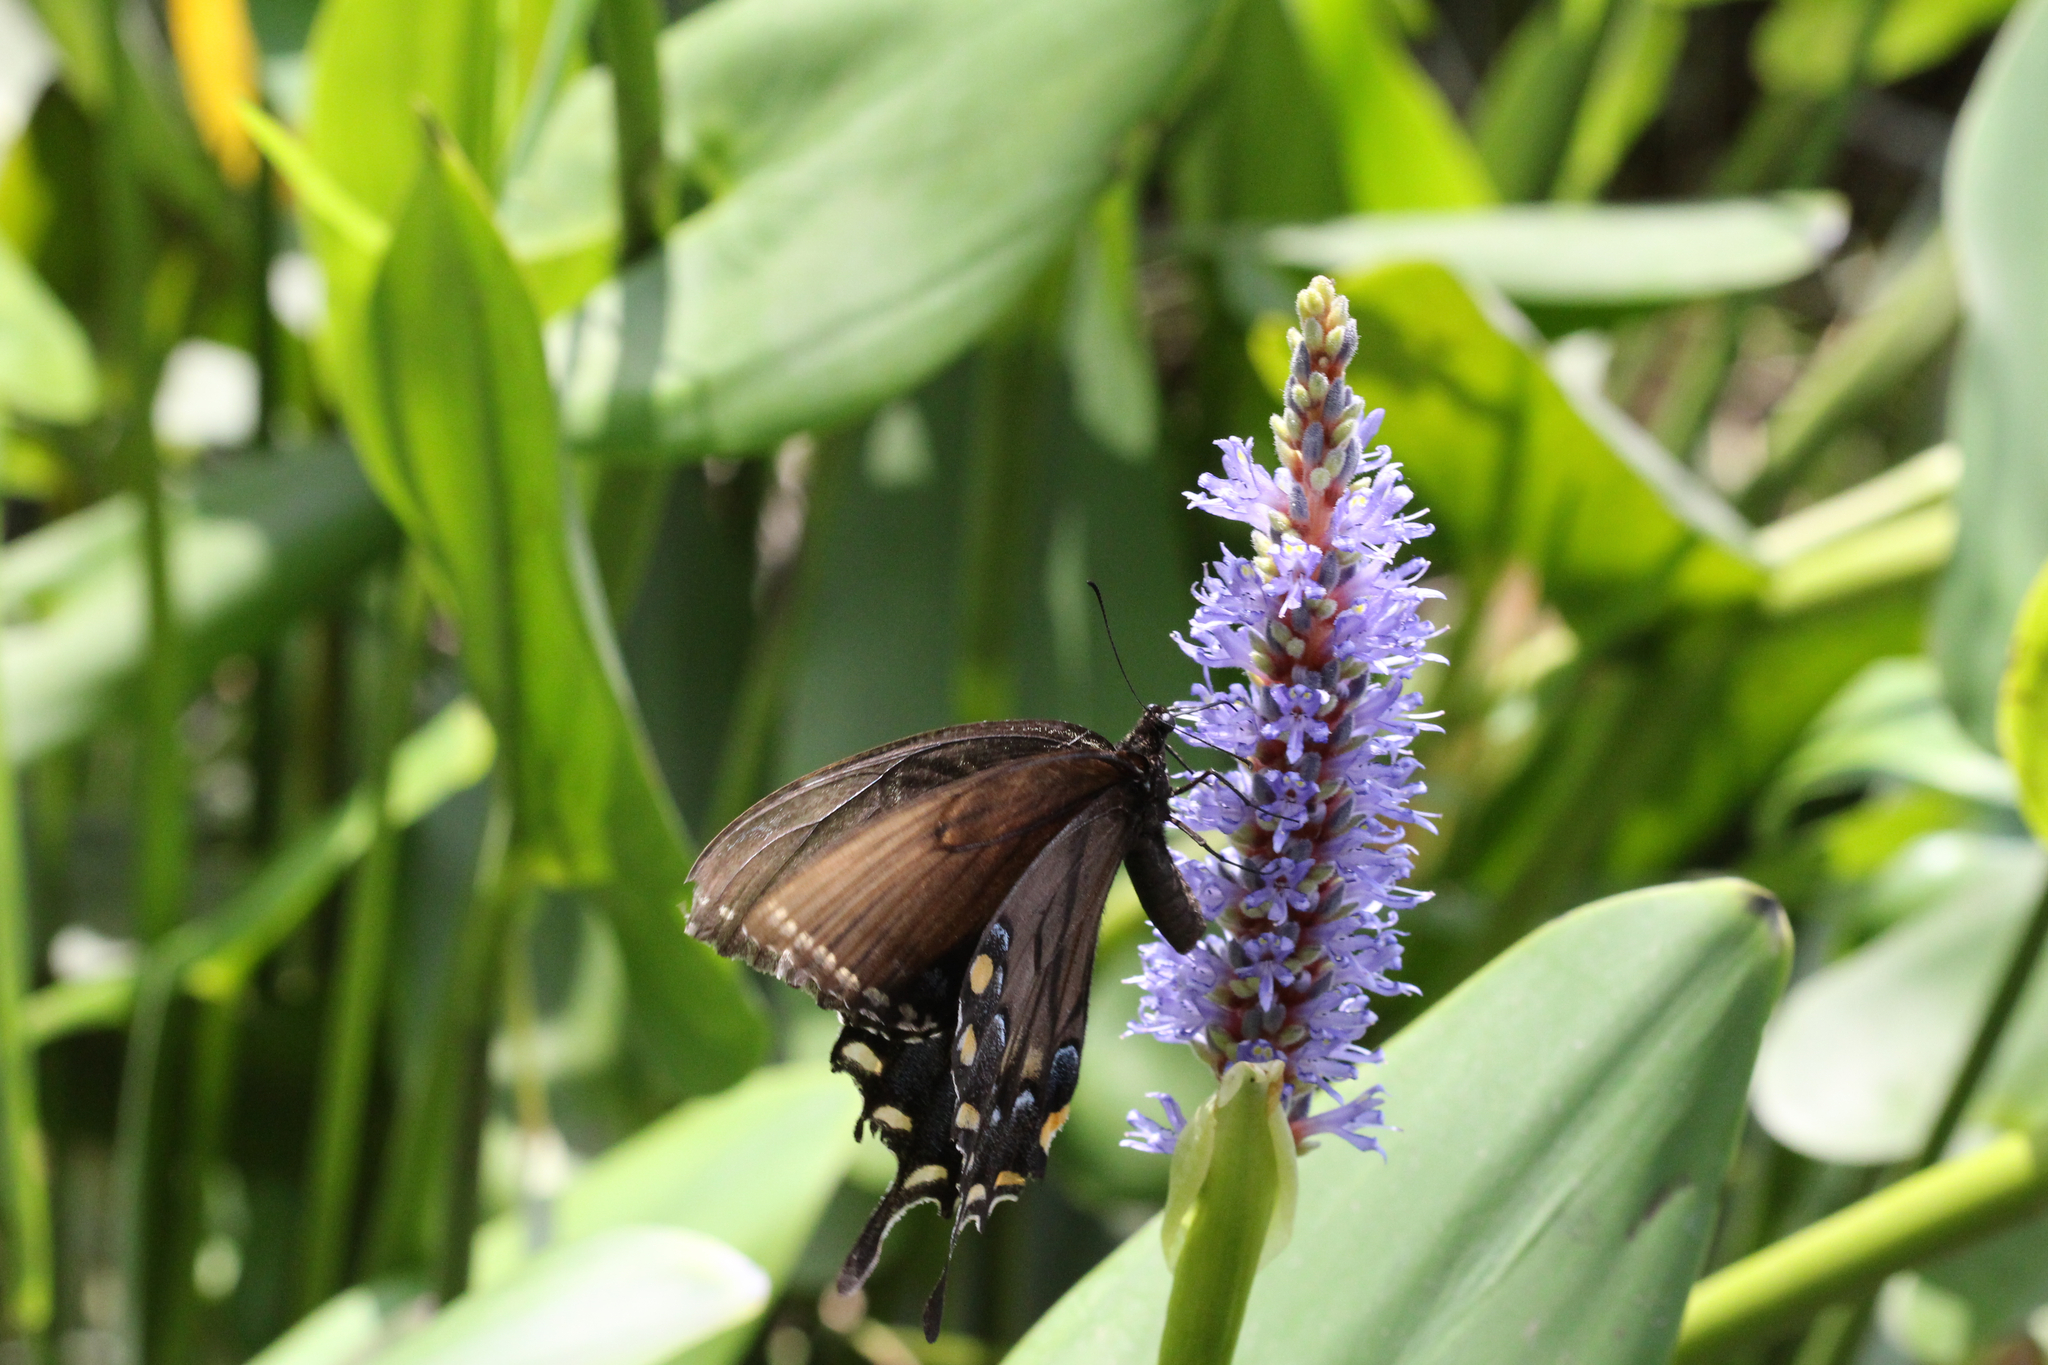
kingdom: Animalia
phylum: Arthropoda
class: Insecta
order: Lepidoptera
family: Papilionidae
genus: Papilio
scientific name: Papilio glaucus
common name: Tiger swallowtail
